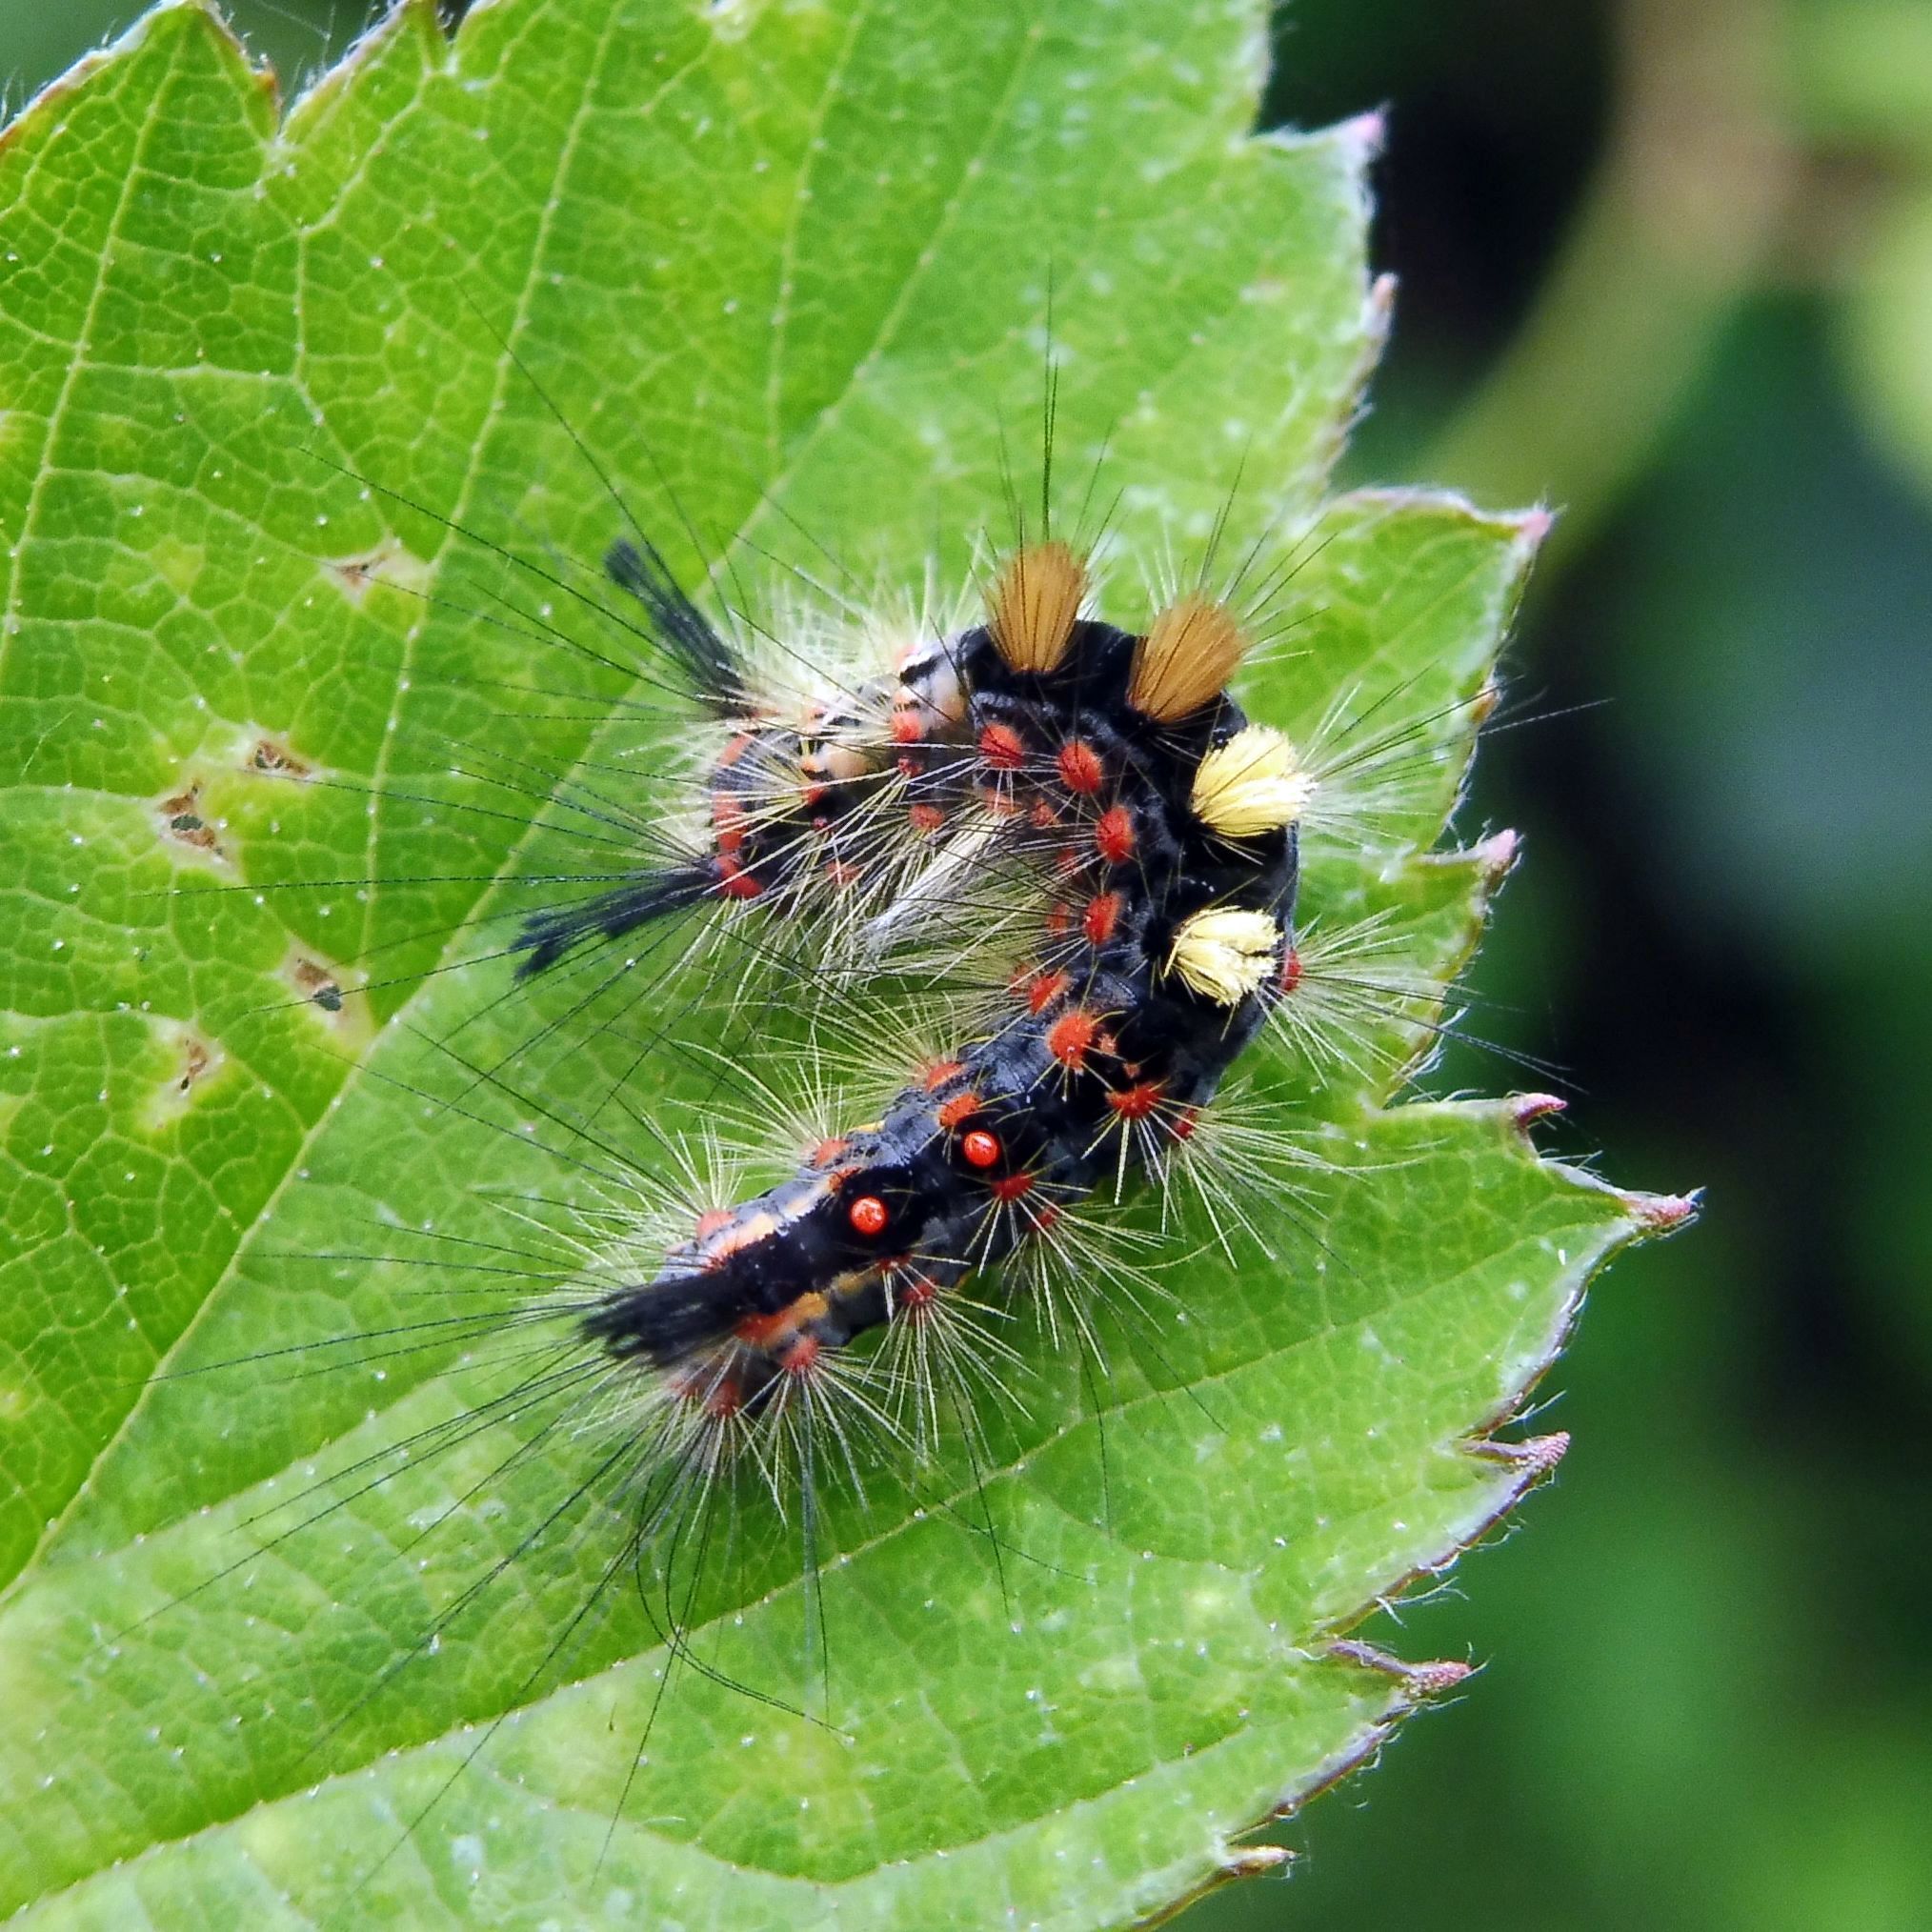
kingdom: Animalia
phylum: Arthropoda
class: Insecta
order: Lepidoptera
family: Erebidae
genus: Orgyia
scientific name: Orgyia antiqua
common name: Vapourer
